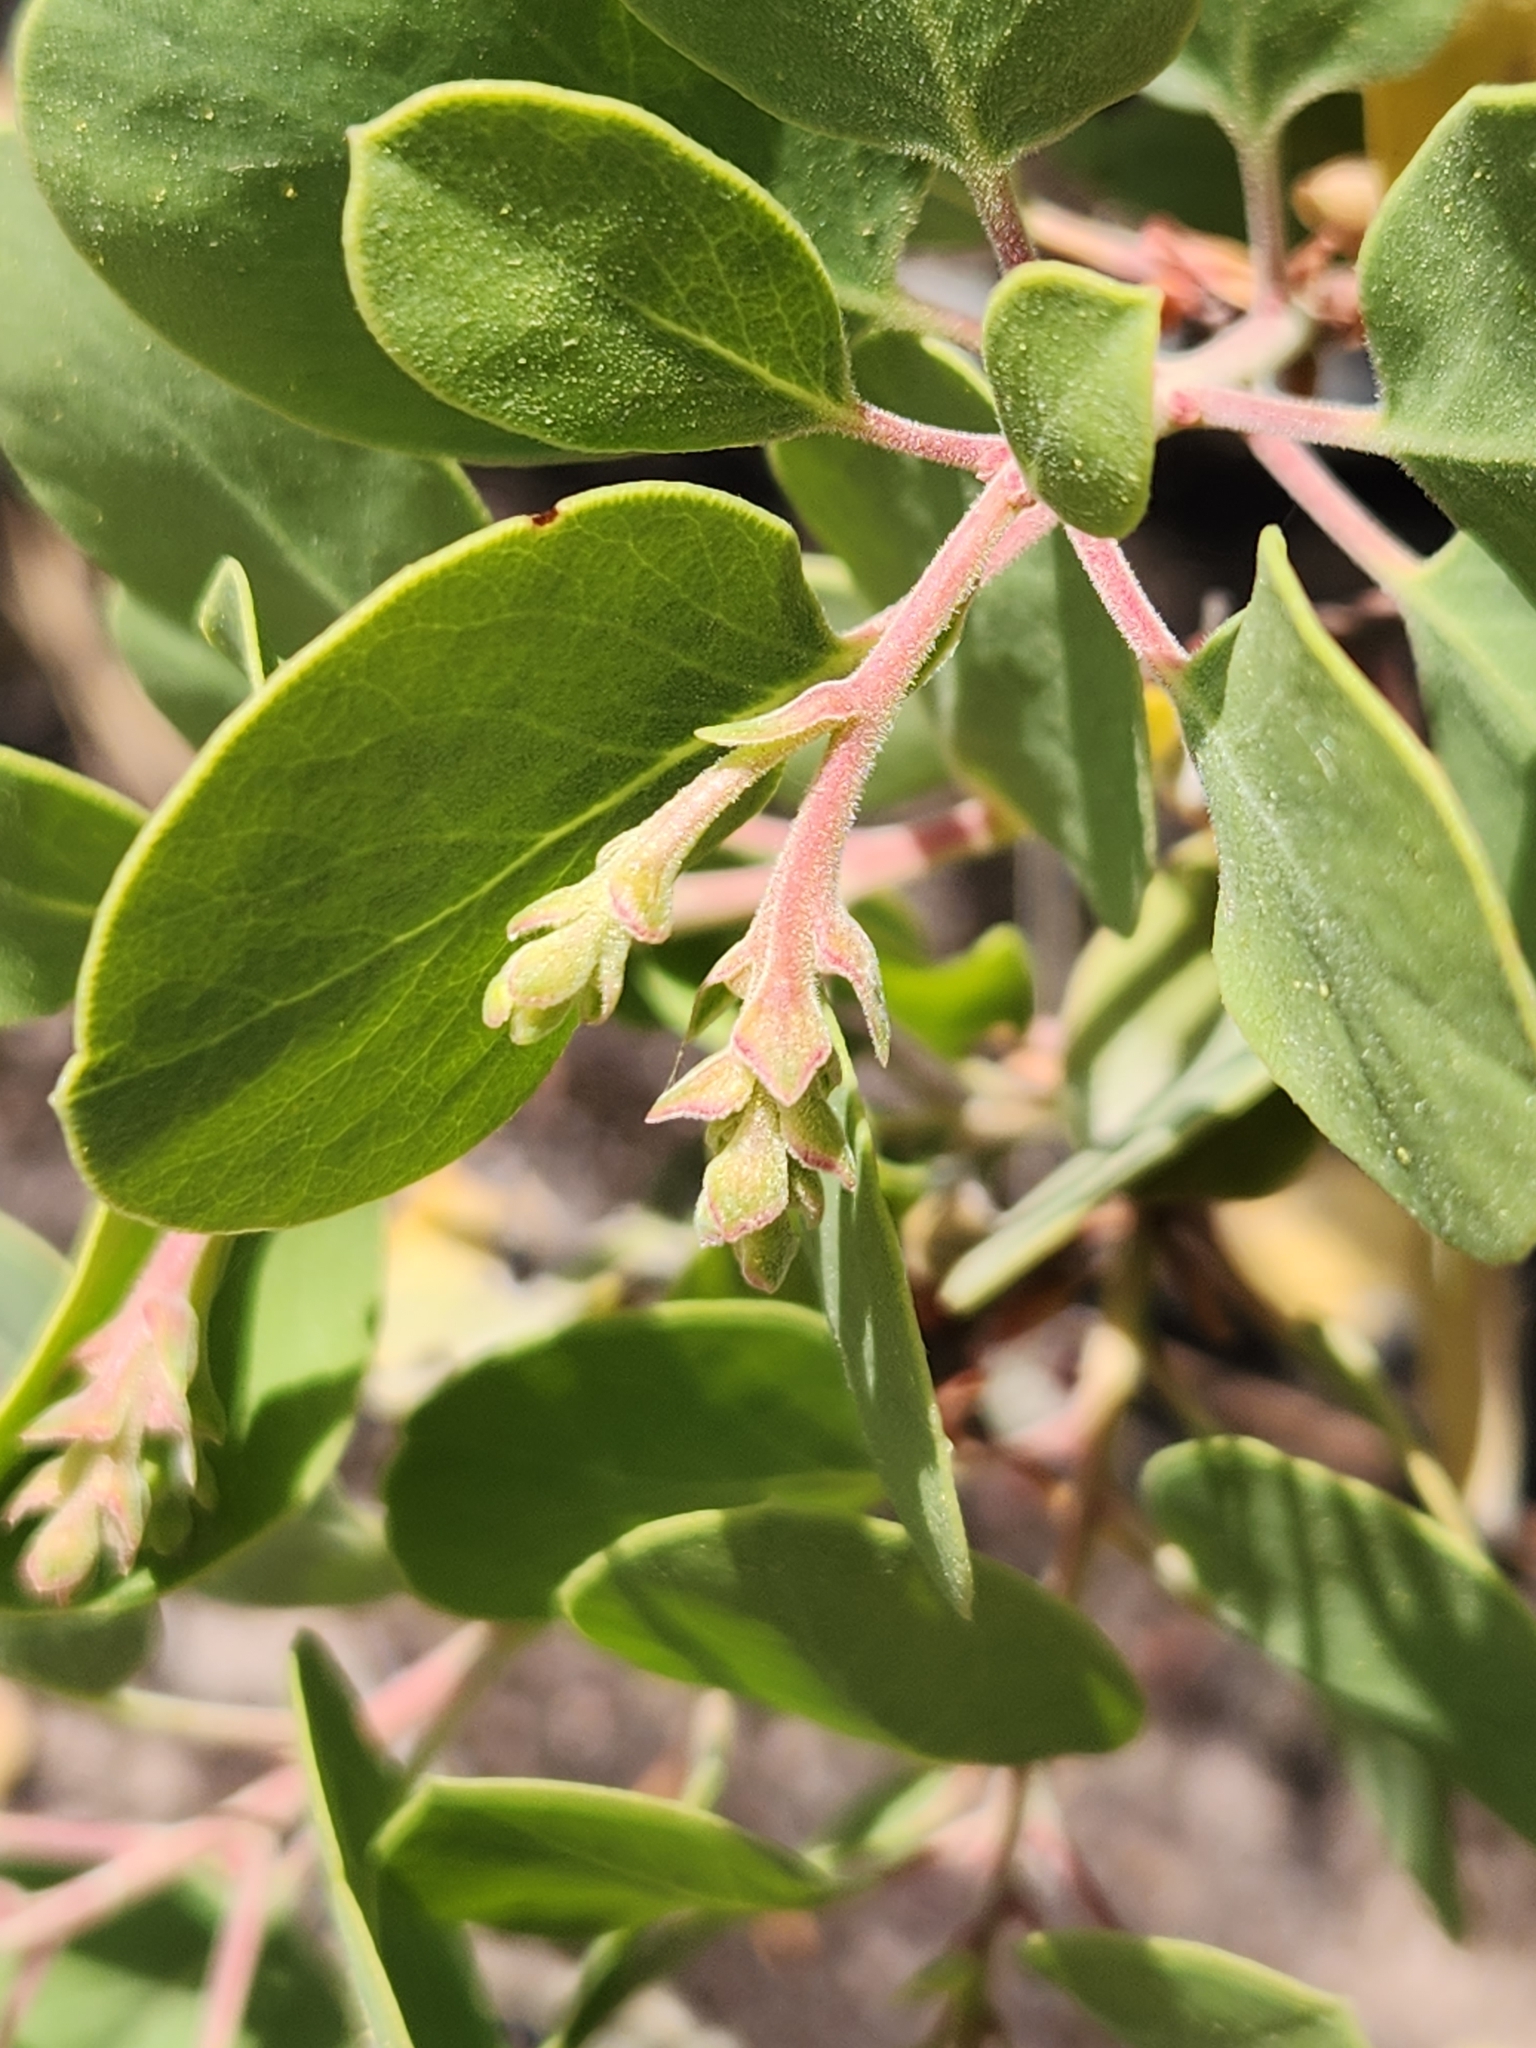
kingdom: Plantae
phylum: Tracheophyta
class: Magnoliopsida
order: Ericales
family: Ericaceae
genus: Arctostaphylos
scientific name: Arctostaphylos glauca
